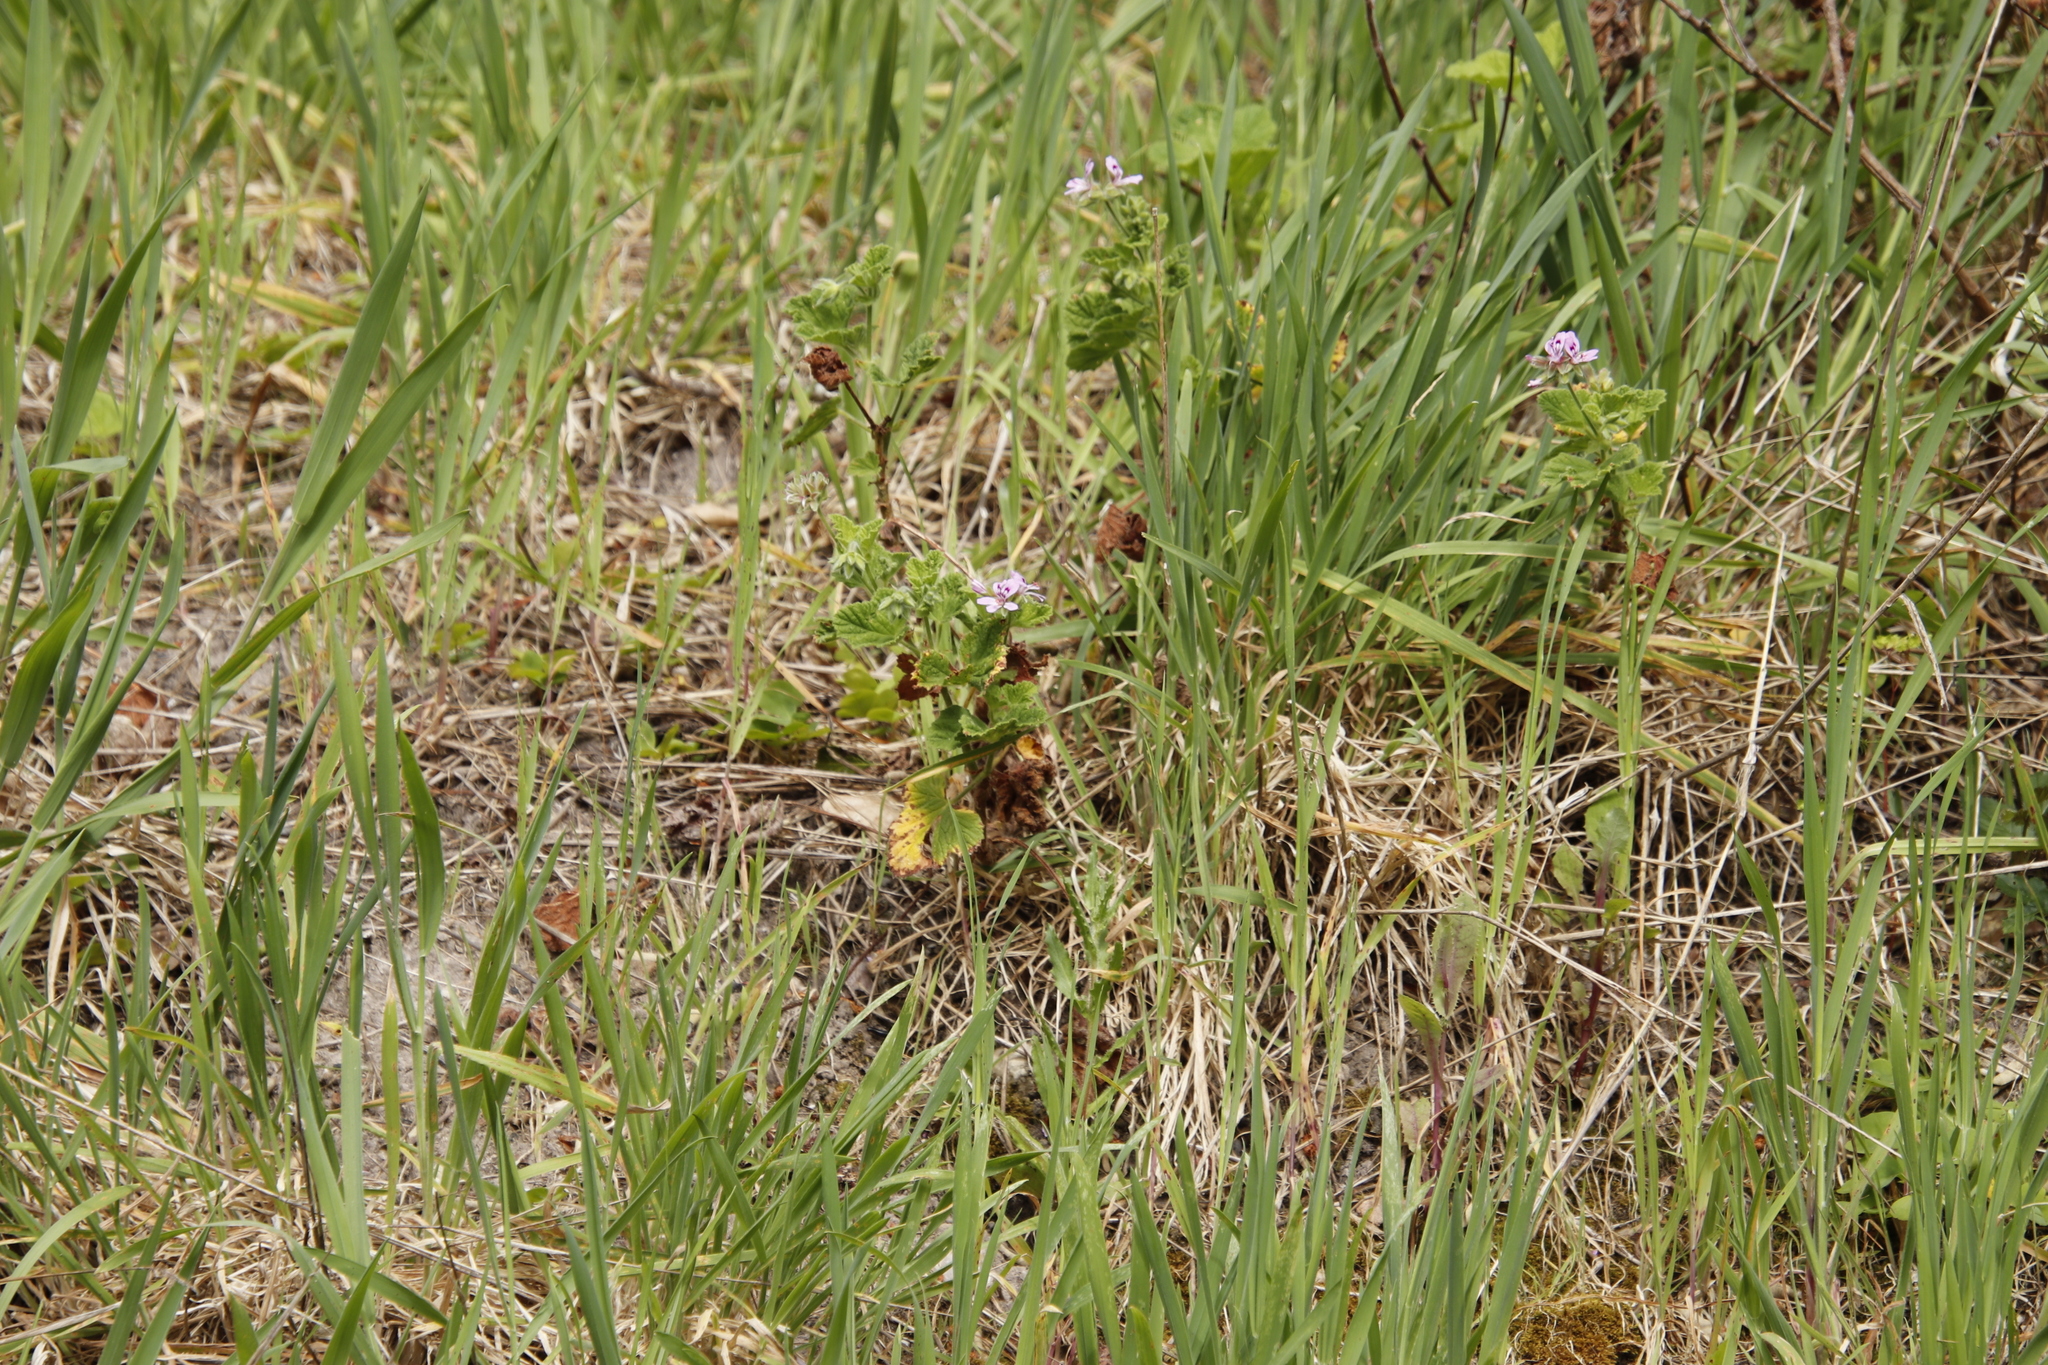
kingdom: Plantae
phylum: Tracheophyta
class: Magnoliopsida
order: Geraniales
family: Geraniaceae
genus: Pelargonium
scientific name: Pelargonium vitifolium
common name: Grapeleaf geranium
